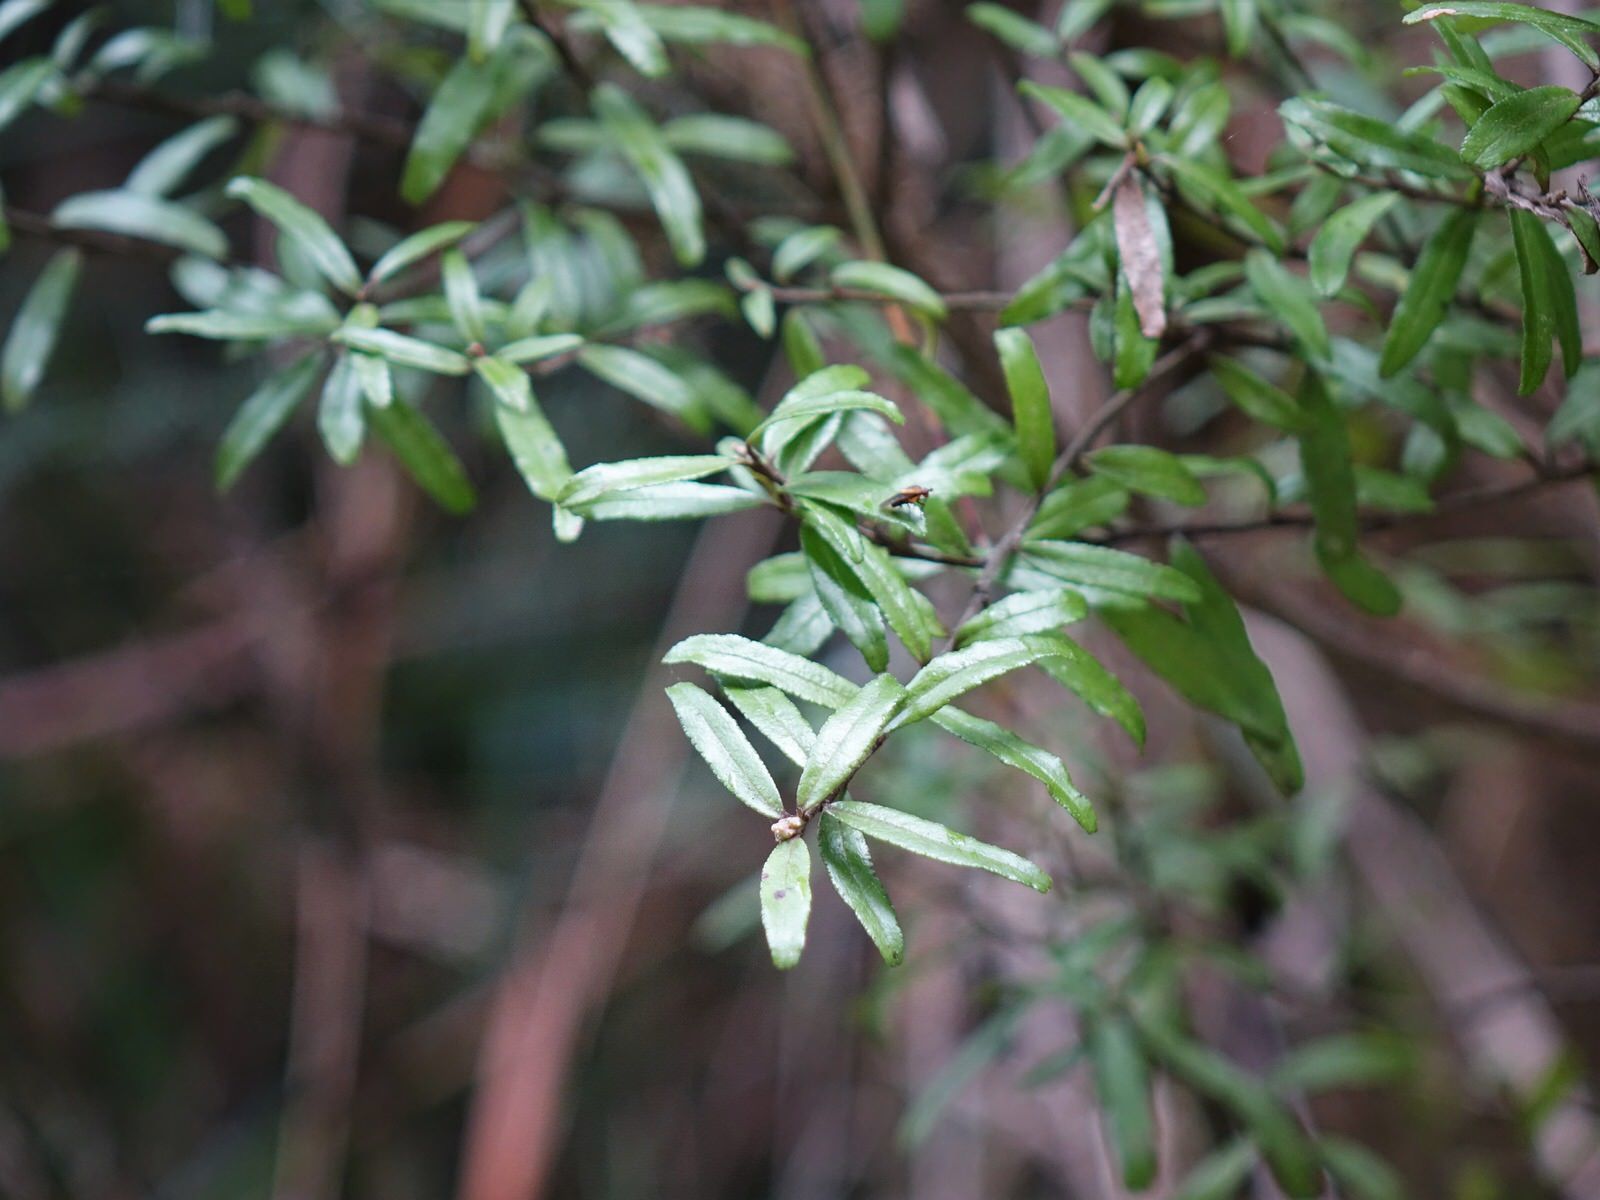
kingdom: Plantae
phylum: Tracheophyta
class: Magnoliopsida
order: Sapindales
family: Rutaceae
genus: Leionema
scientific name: Leionema nudum
